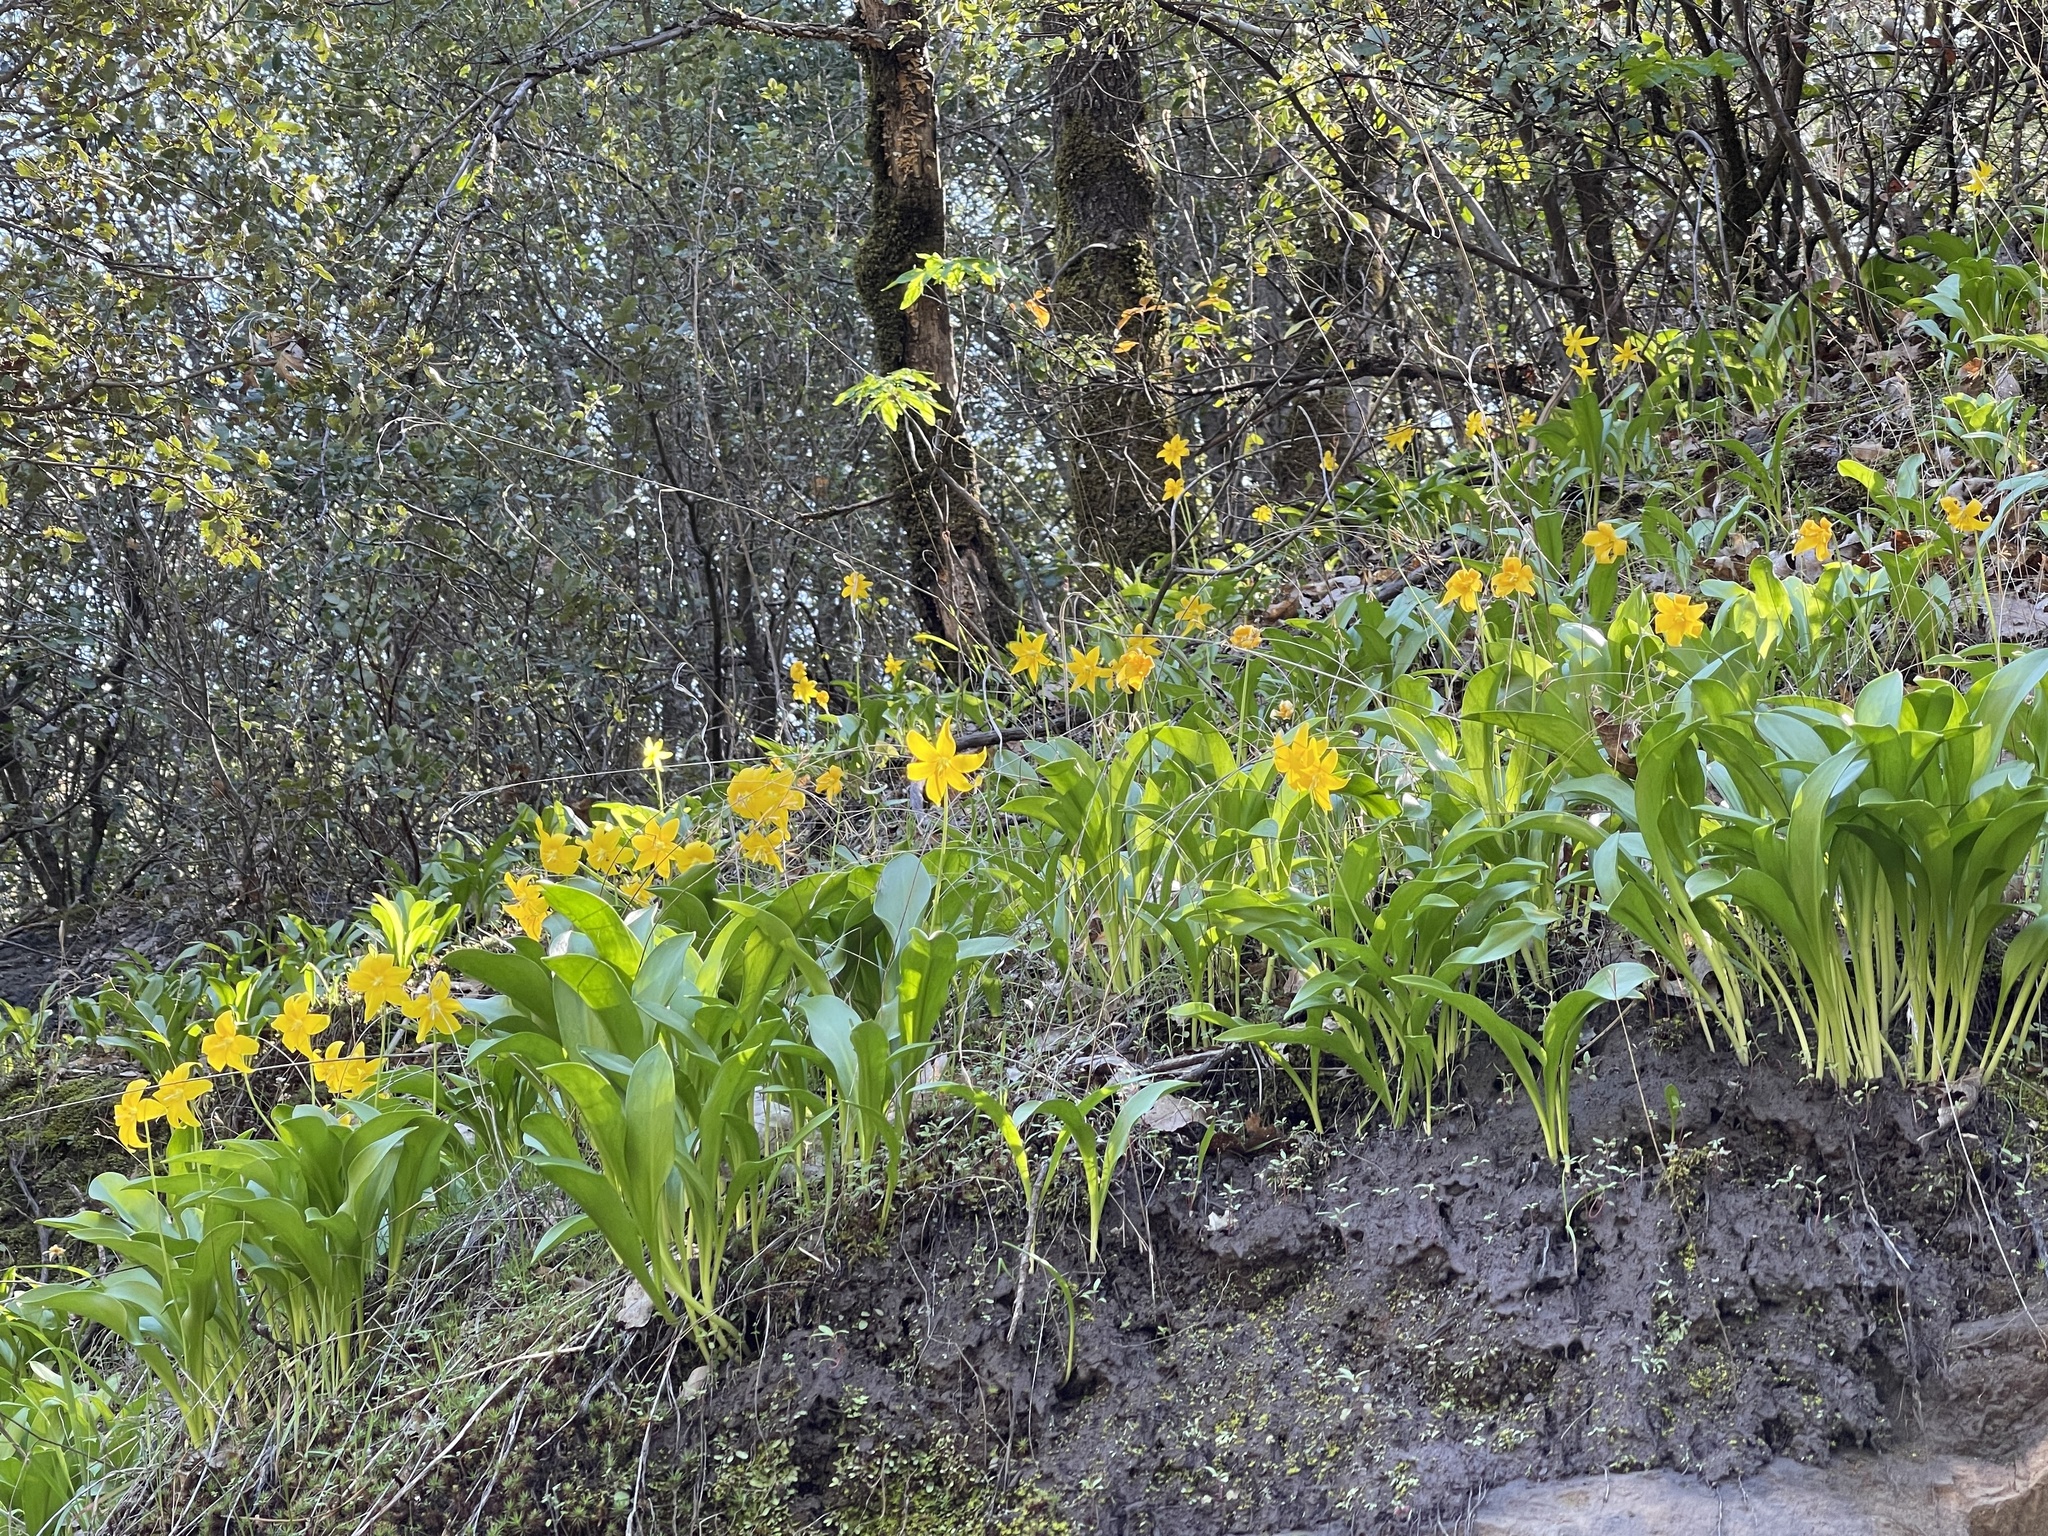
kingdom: Plantae
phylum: Tracheophyta
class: Liliopsida
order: Liliales
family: Liliaceae
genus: Erythronium
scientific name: Erythronium tuolumnense
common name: Tuolumne fawn-lily
